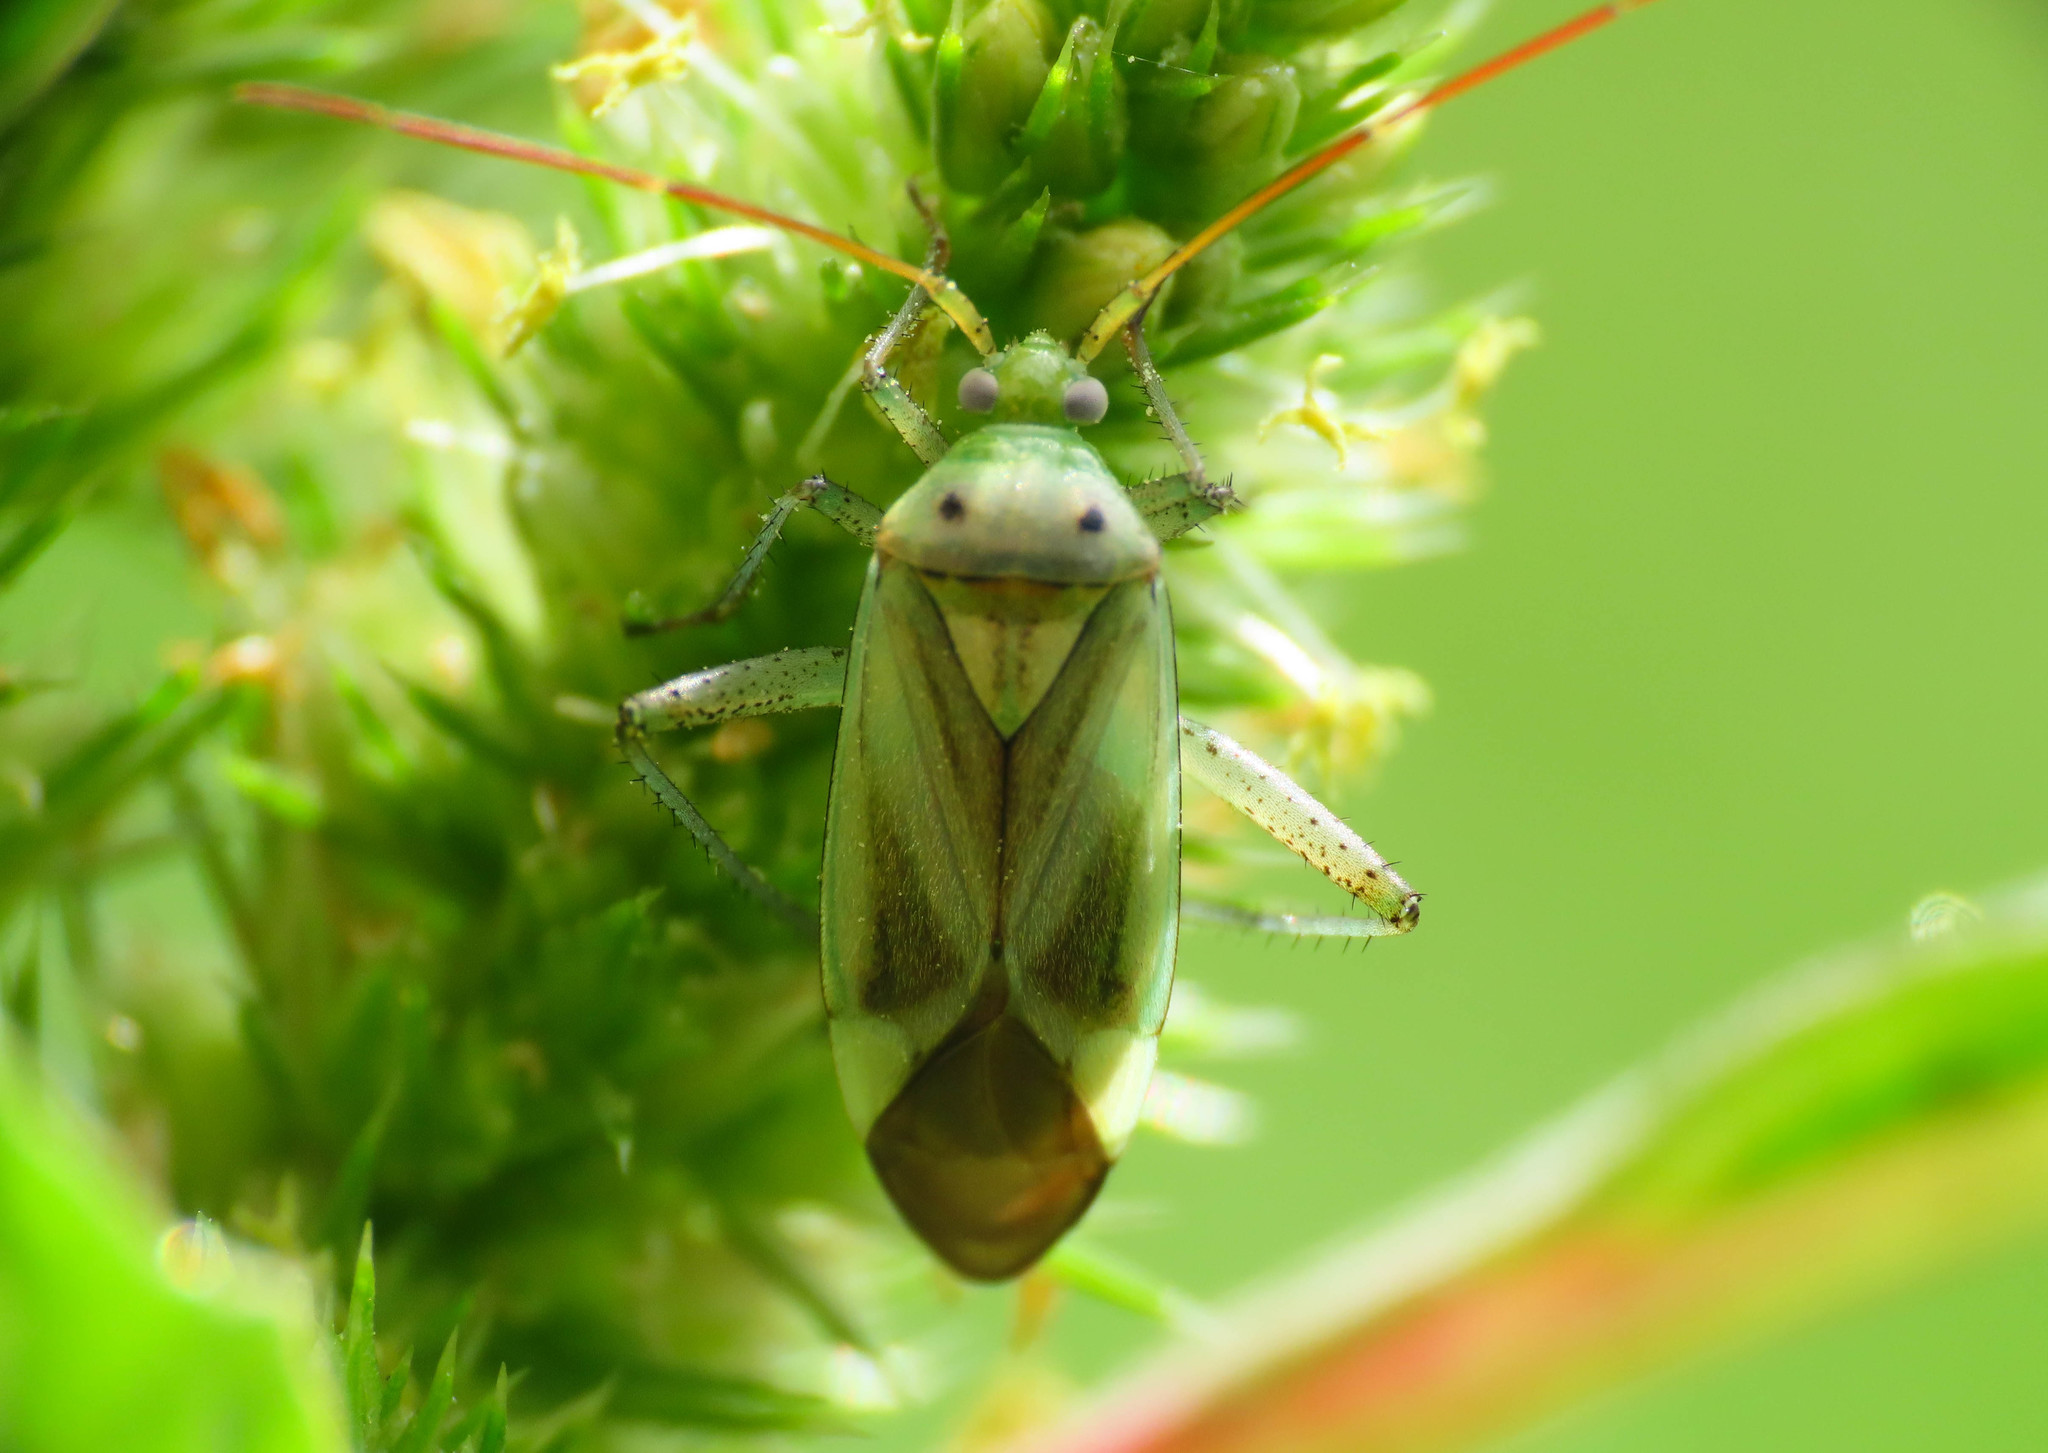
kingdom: Animalia
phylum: Arthropoda
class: Insecta
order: Hemiptera
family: Miridae
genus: Adelphocoris
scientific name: Adelphocoris lineolatus
